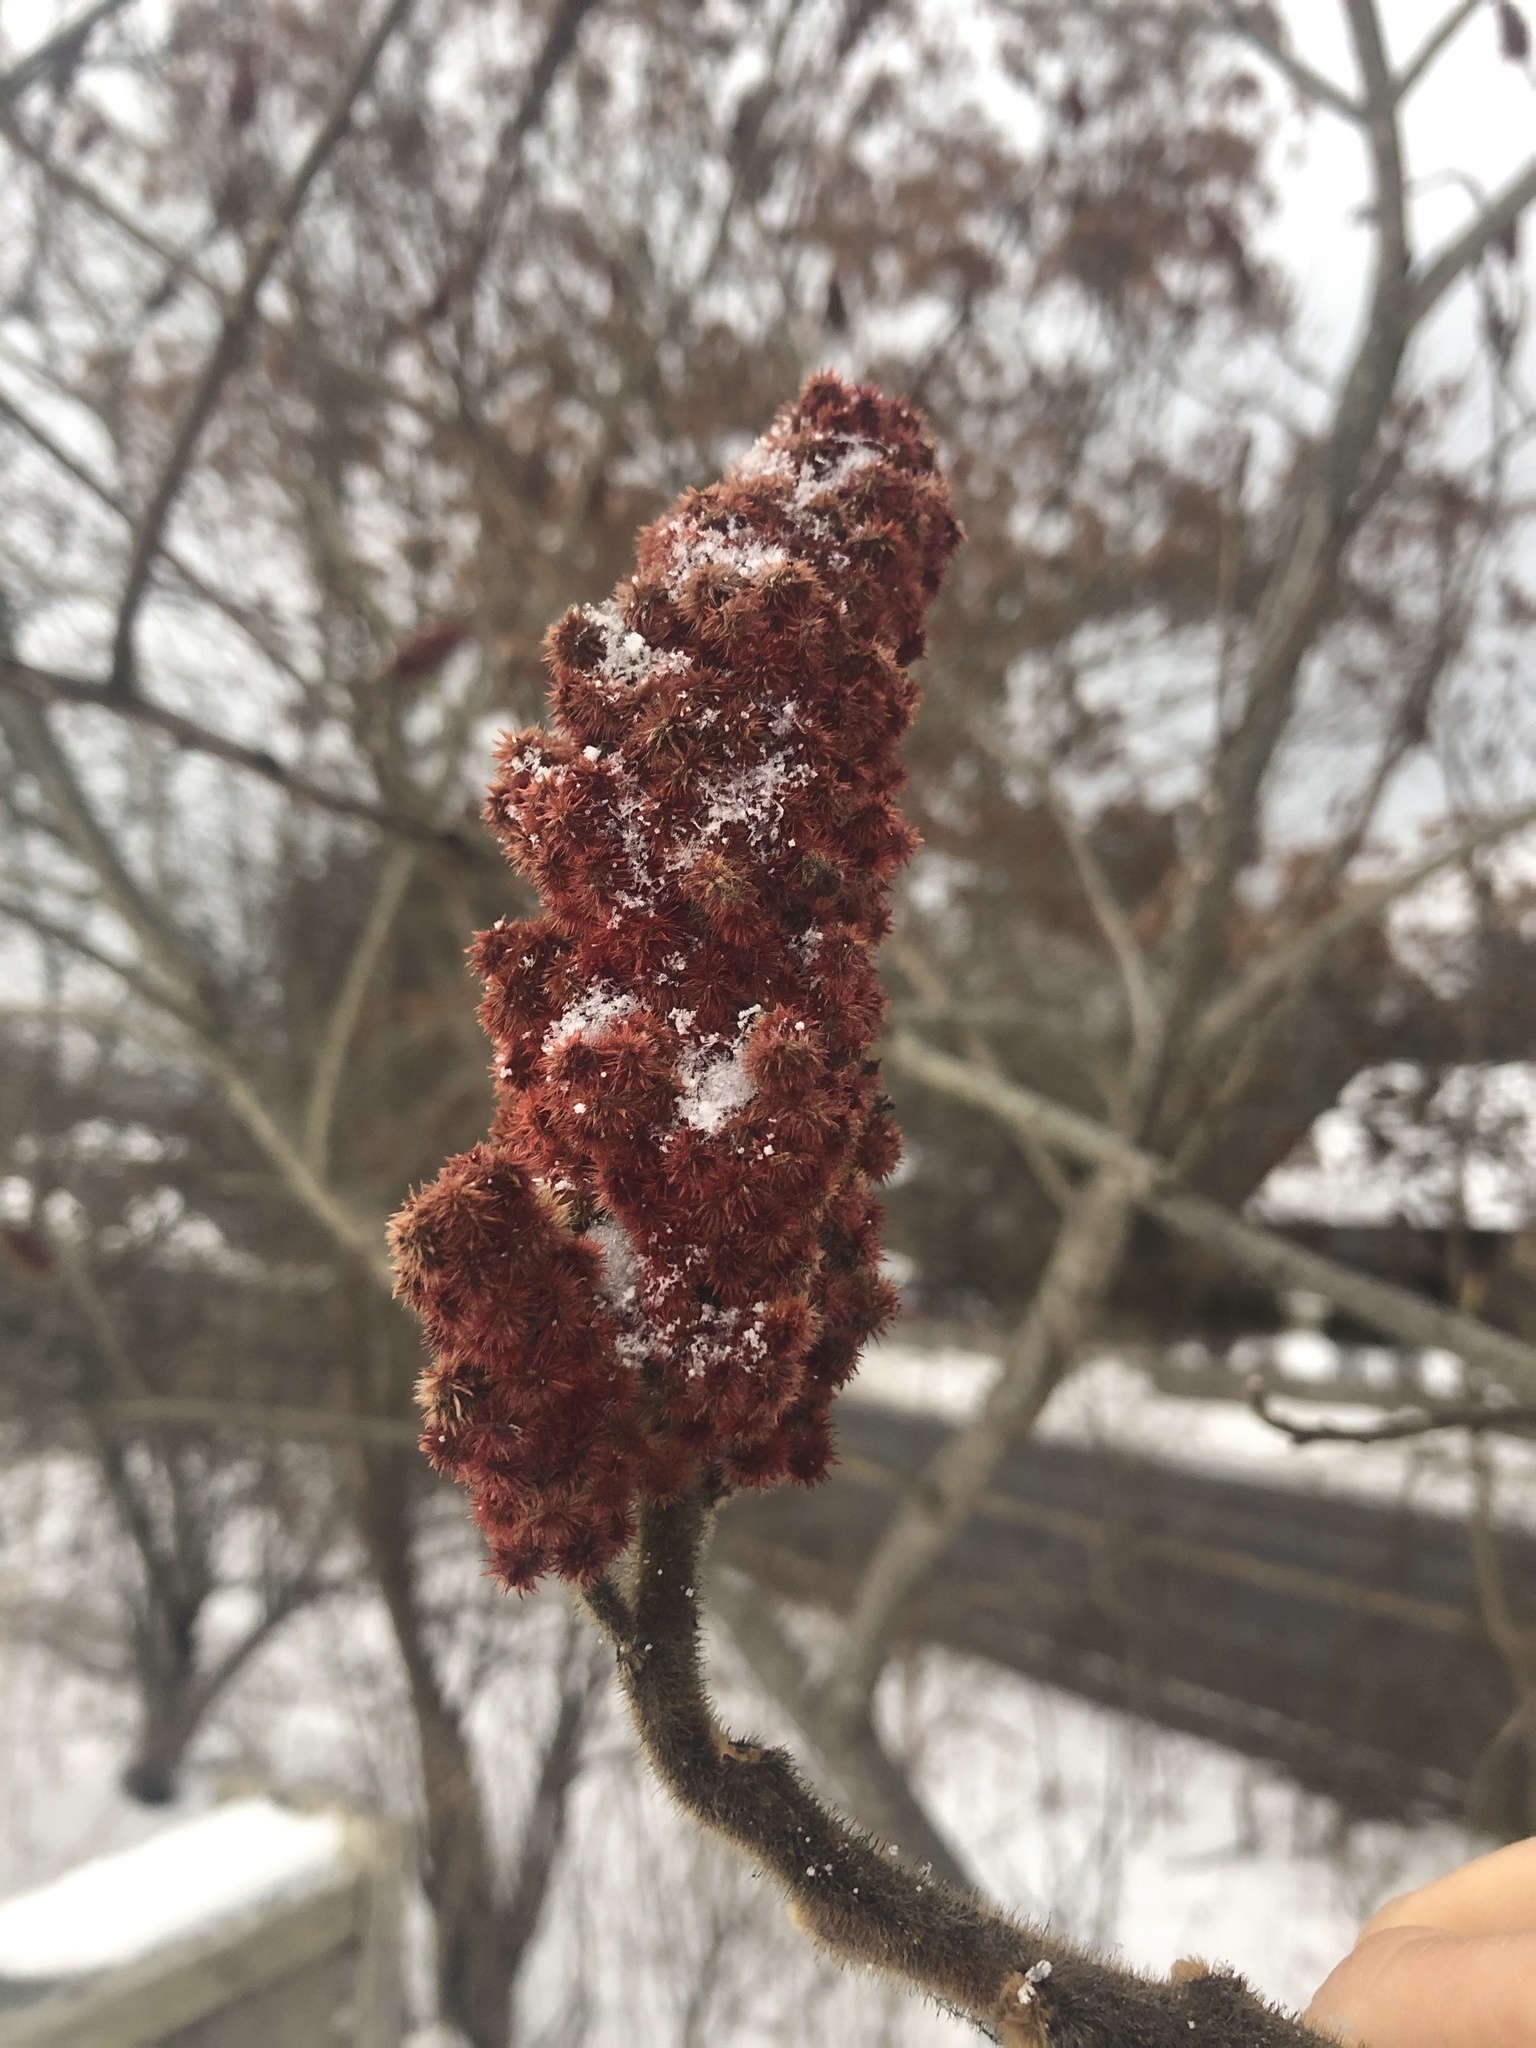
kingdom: Plantae
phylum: Tracheophyta
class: Magnoliopsida
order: Sapindales
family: Anacardiaceae
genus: Rhus
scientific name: Rhus typhina
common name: Staghorn sumac
